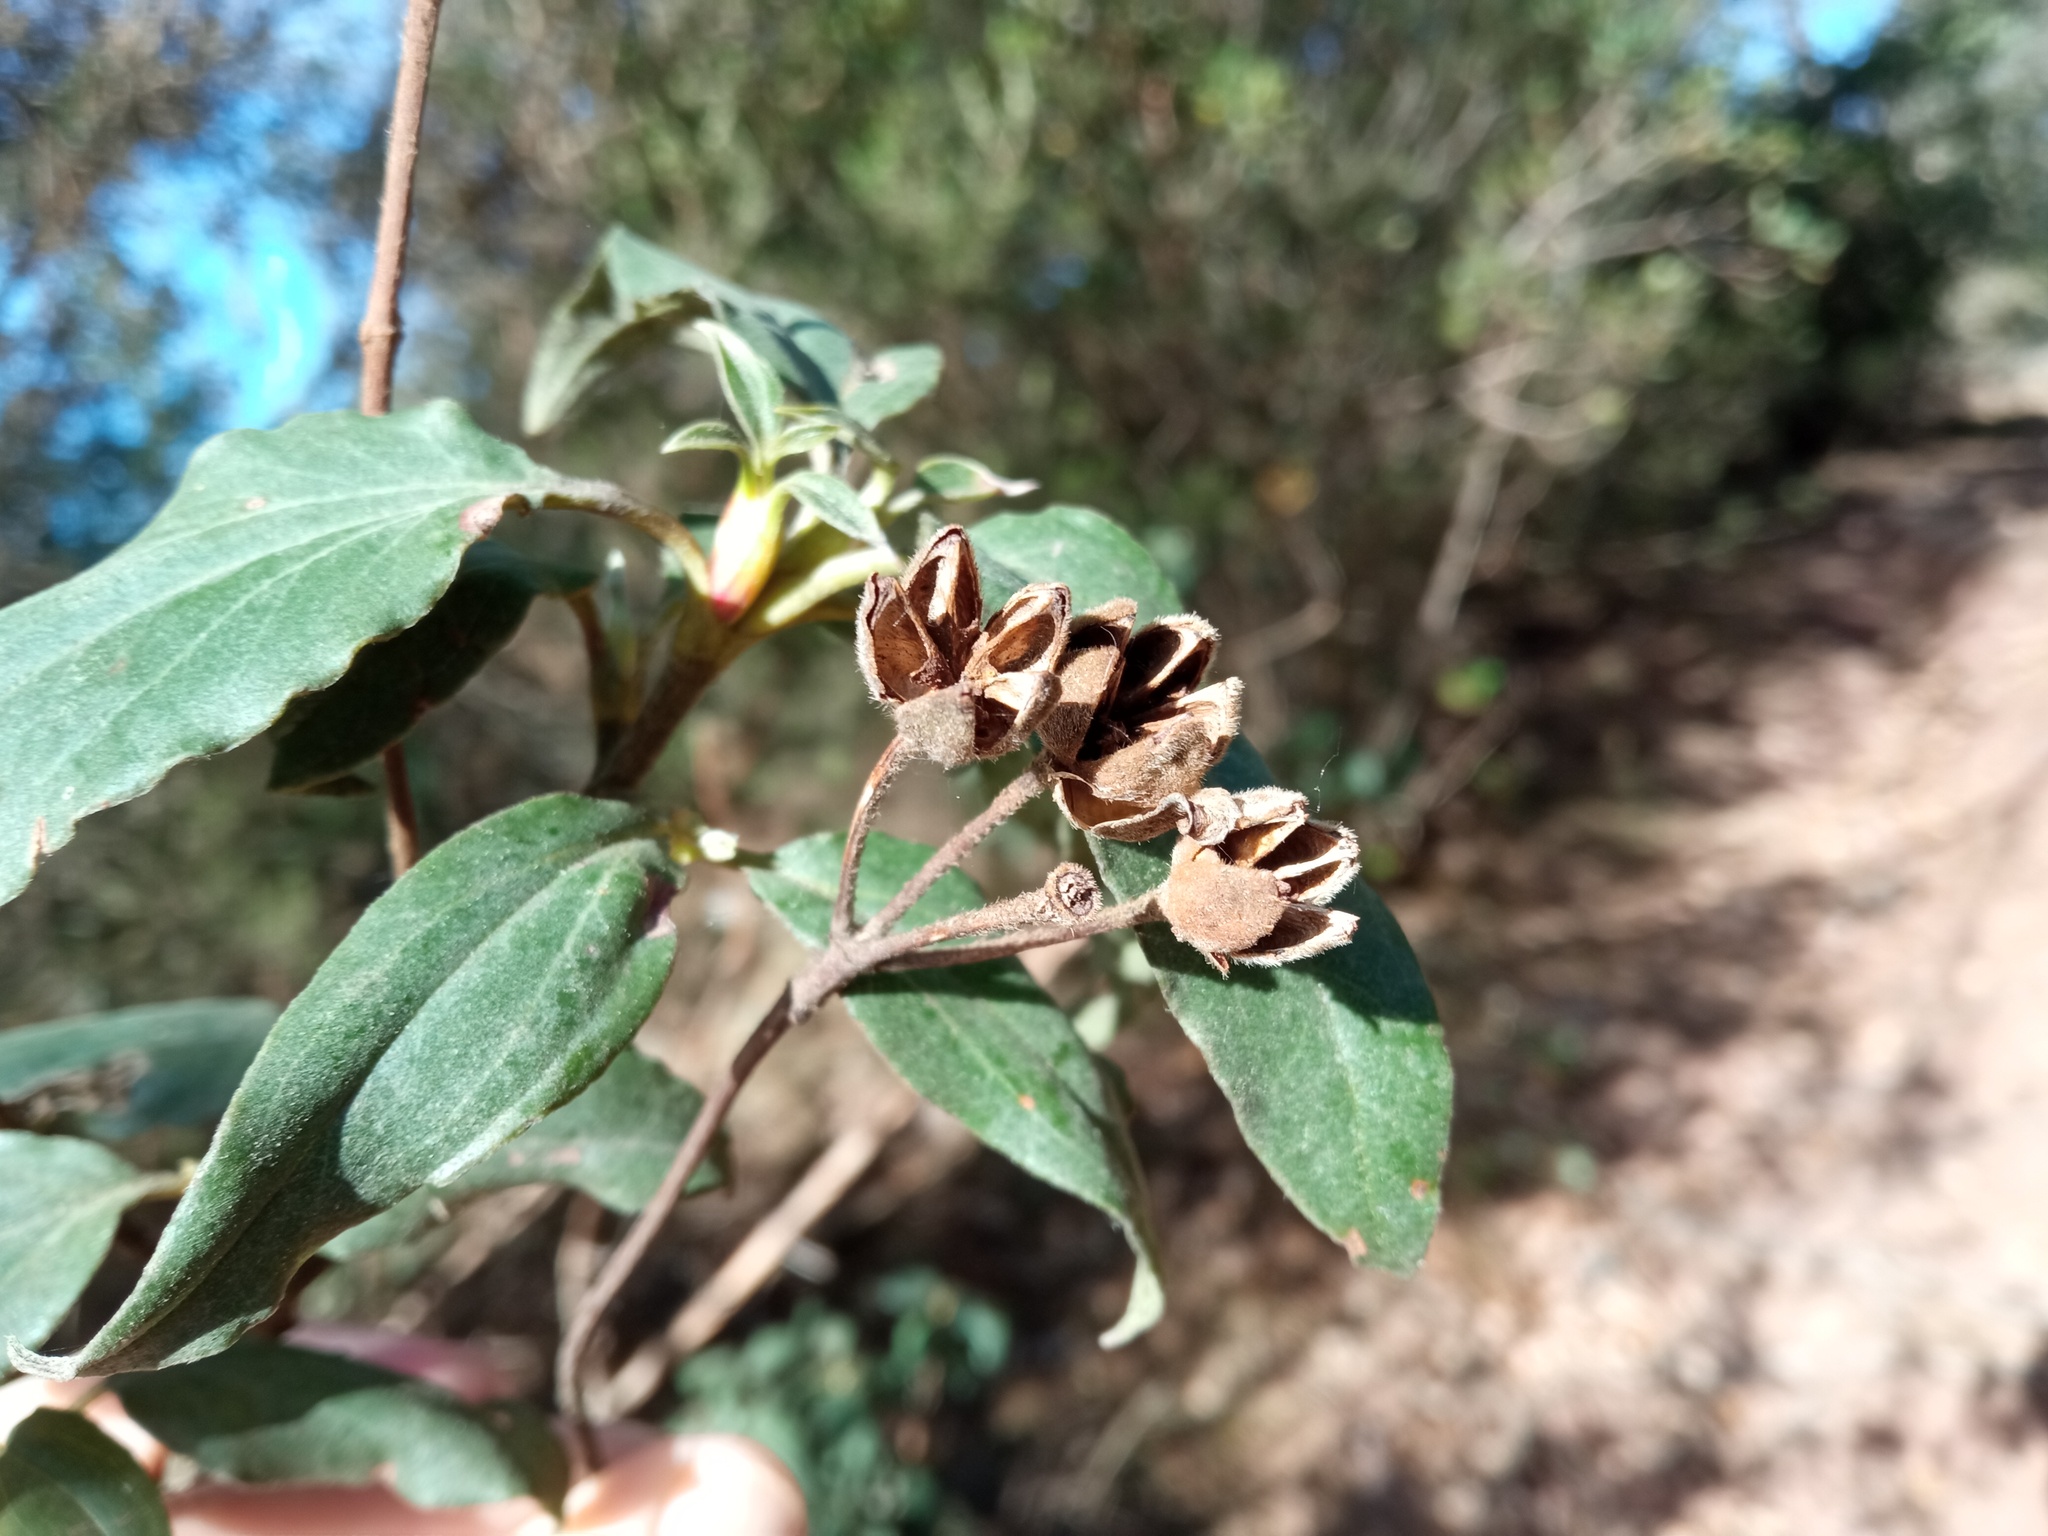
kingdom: Plantae
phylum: Tracheophyta
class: Magnoliopsida
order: Malvales
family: Cistaceae
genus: Cistus
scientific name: Cistus laurifolius
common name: Laurel-leaved cistus
